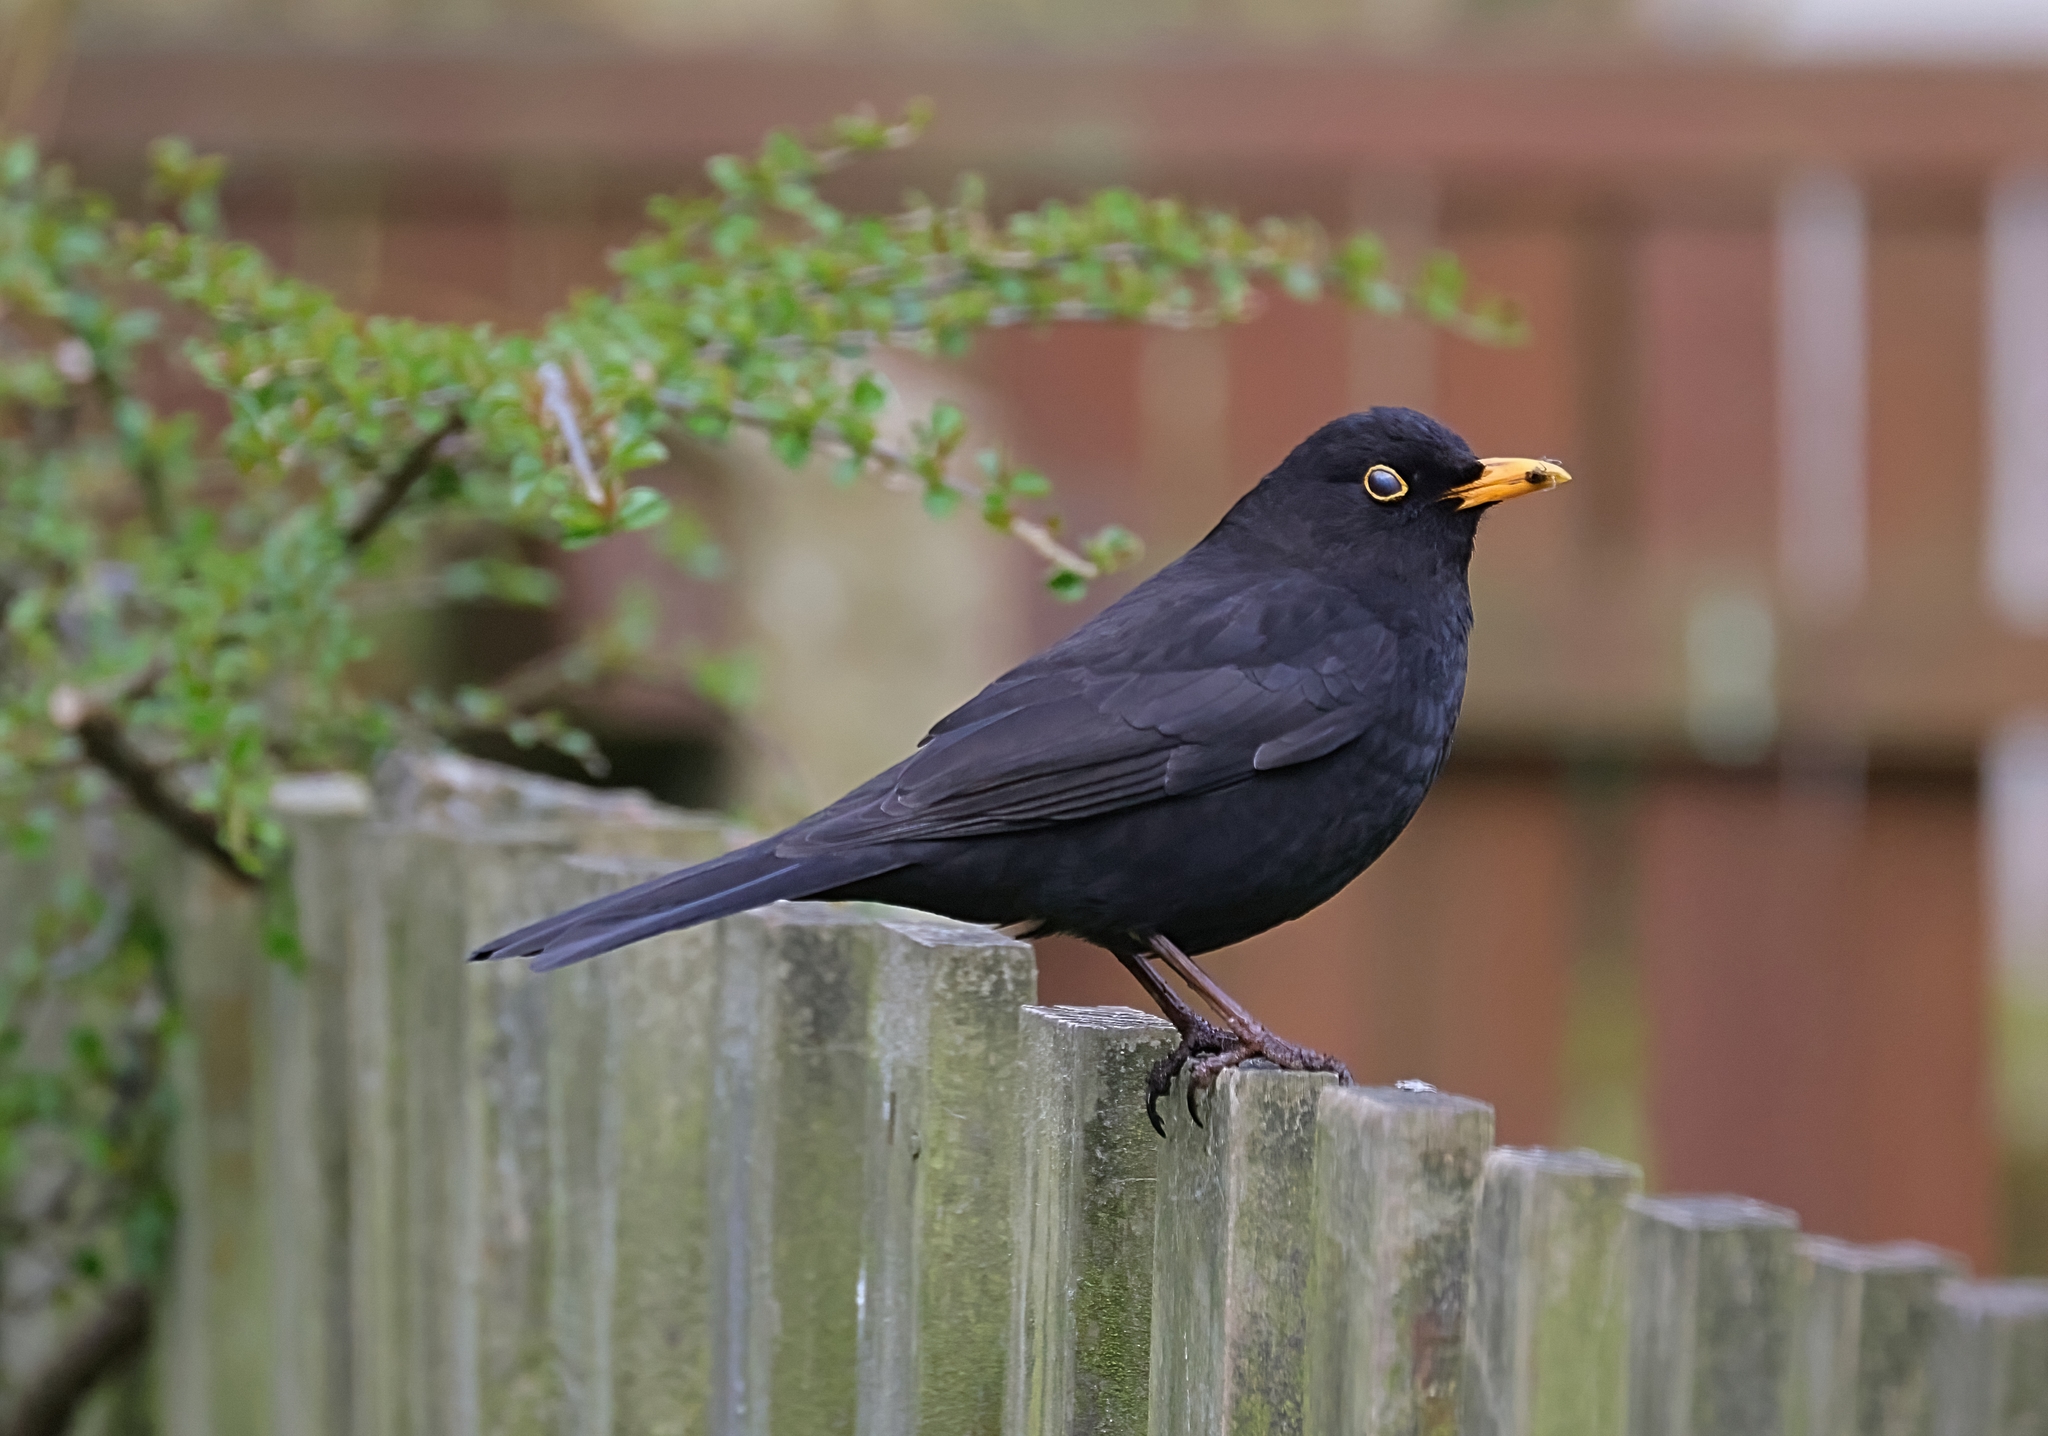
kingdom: Animalia
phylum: Chordata
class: Aves
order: Passeriformes
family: Turdidae
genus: Turdus
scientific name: Turdus merula
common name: Common blackbird
